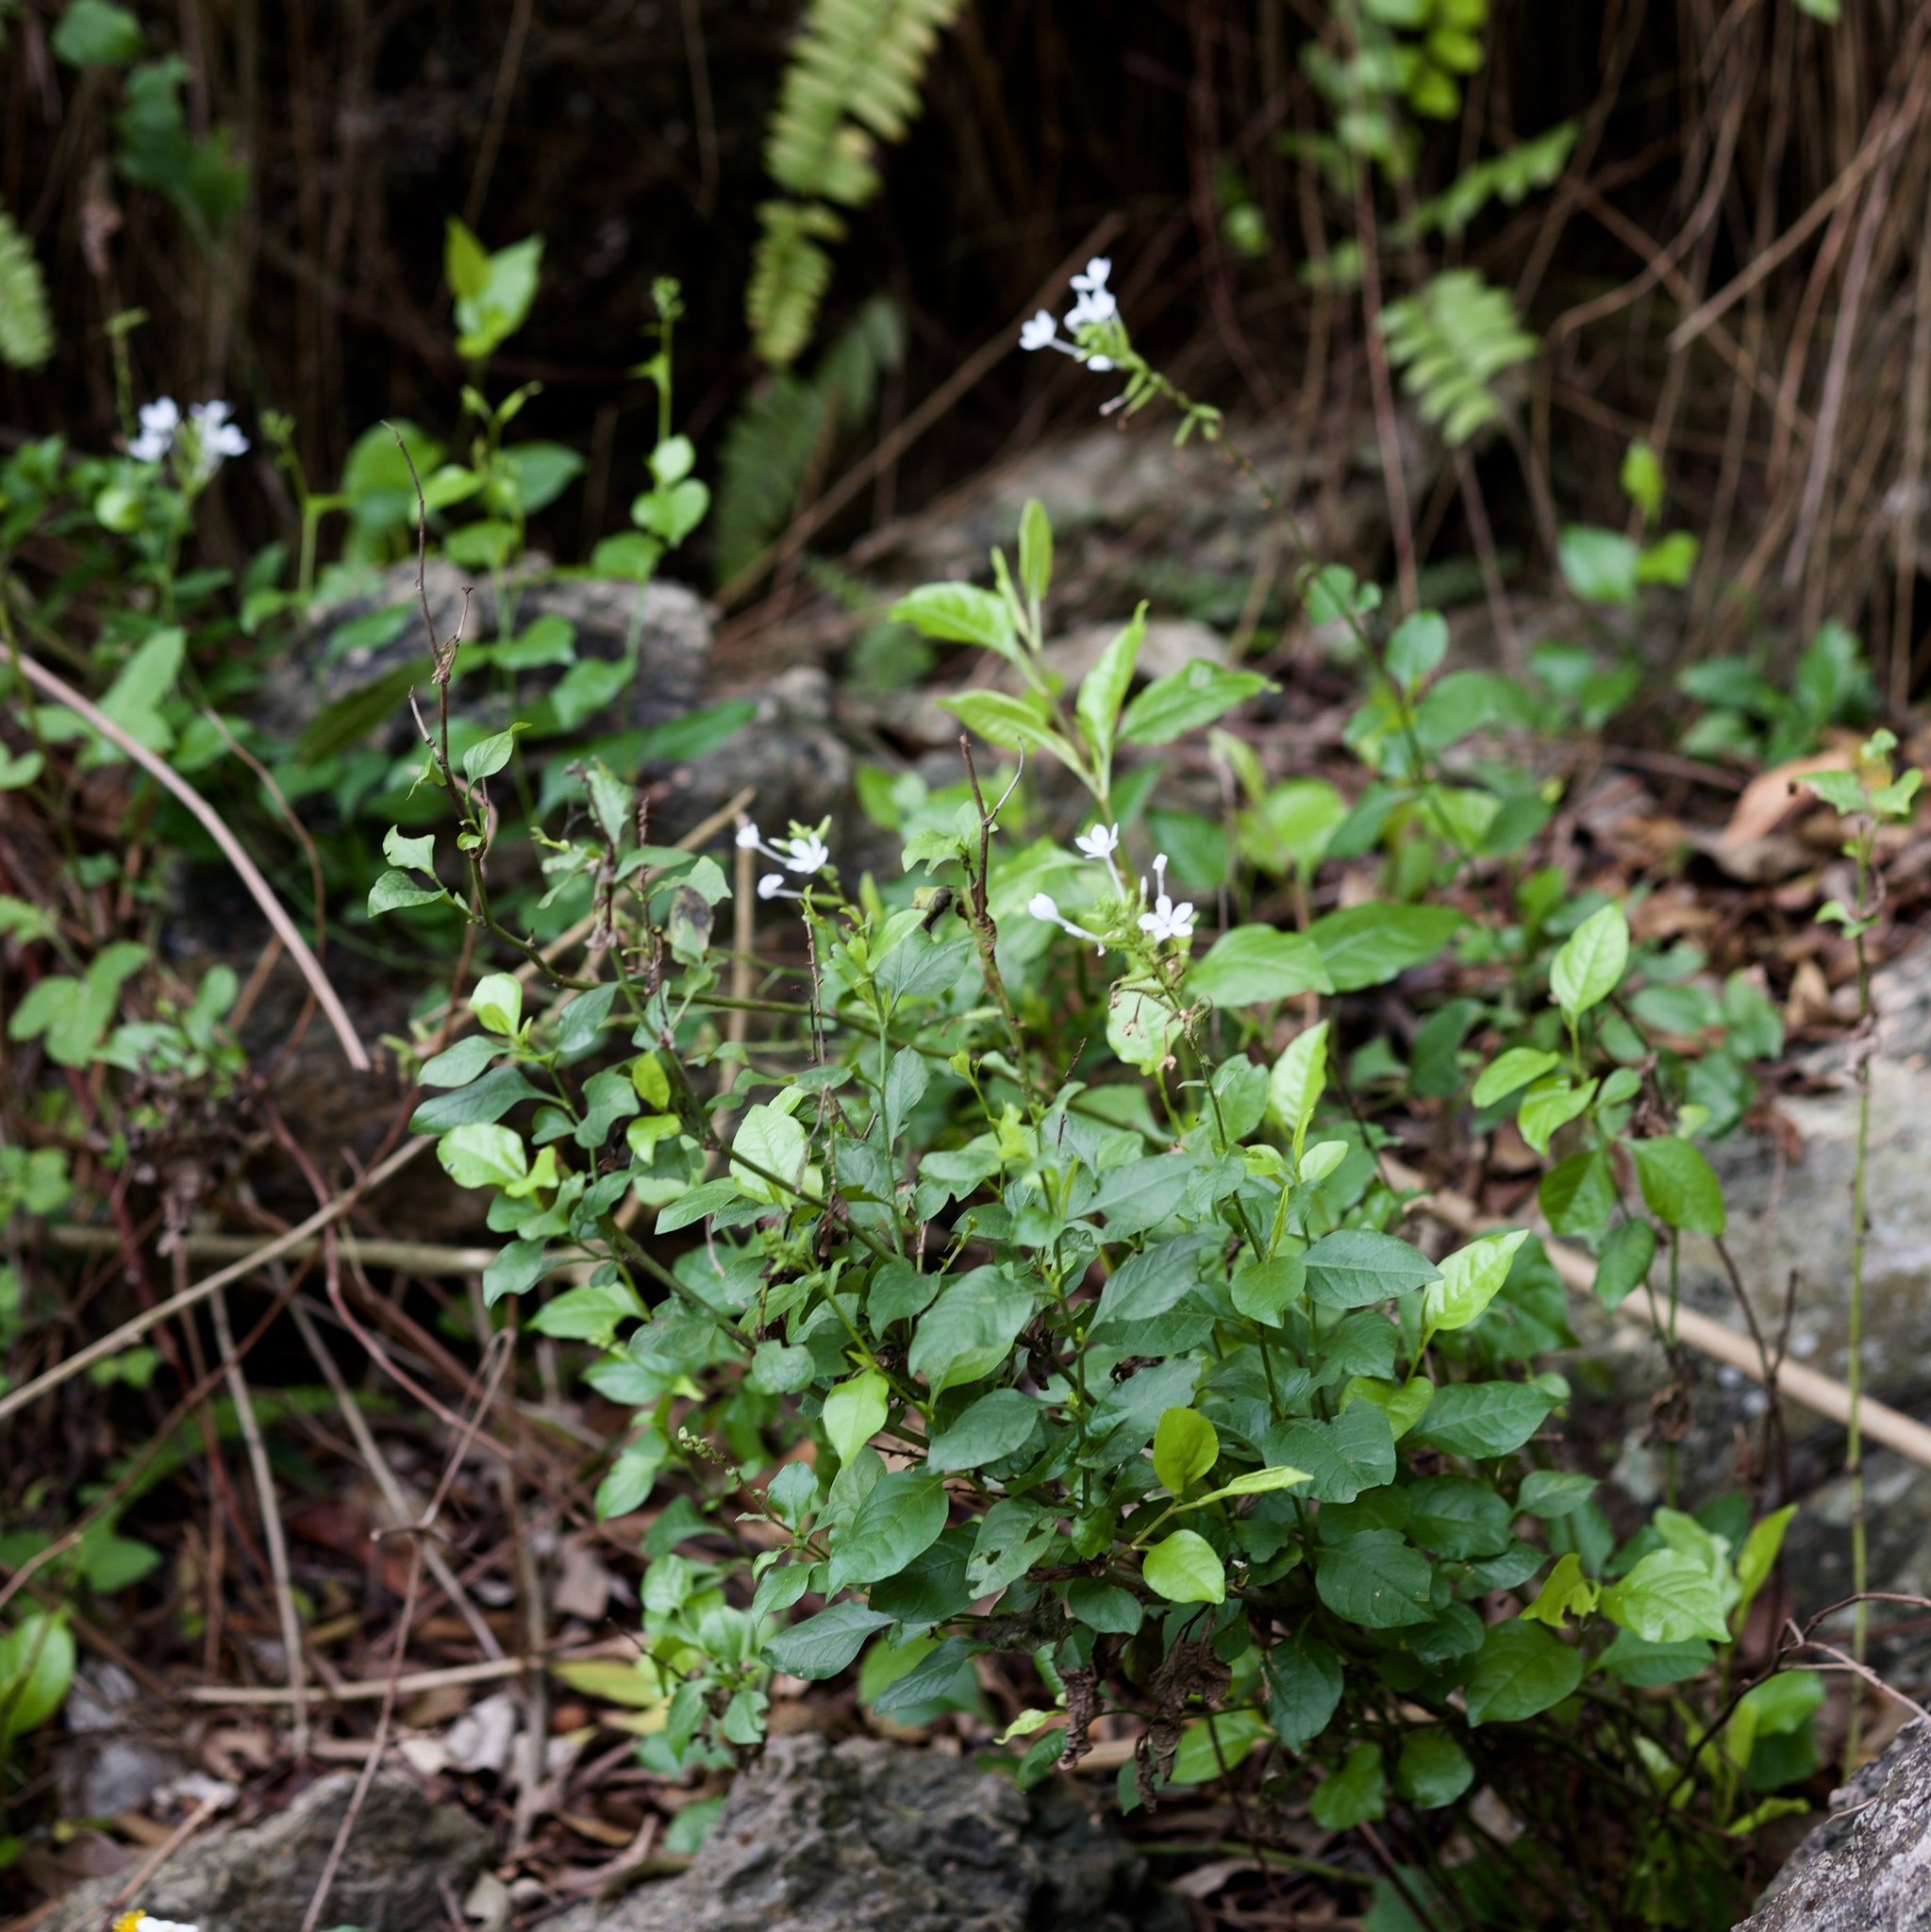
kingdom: Plantae
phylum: Tracheophyta
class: Magnoliopsida
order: Caryophyllales
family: Plumbaginaceae
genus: Plumbago
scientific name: Plumbago zeylanica
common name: Doctorbush
